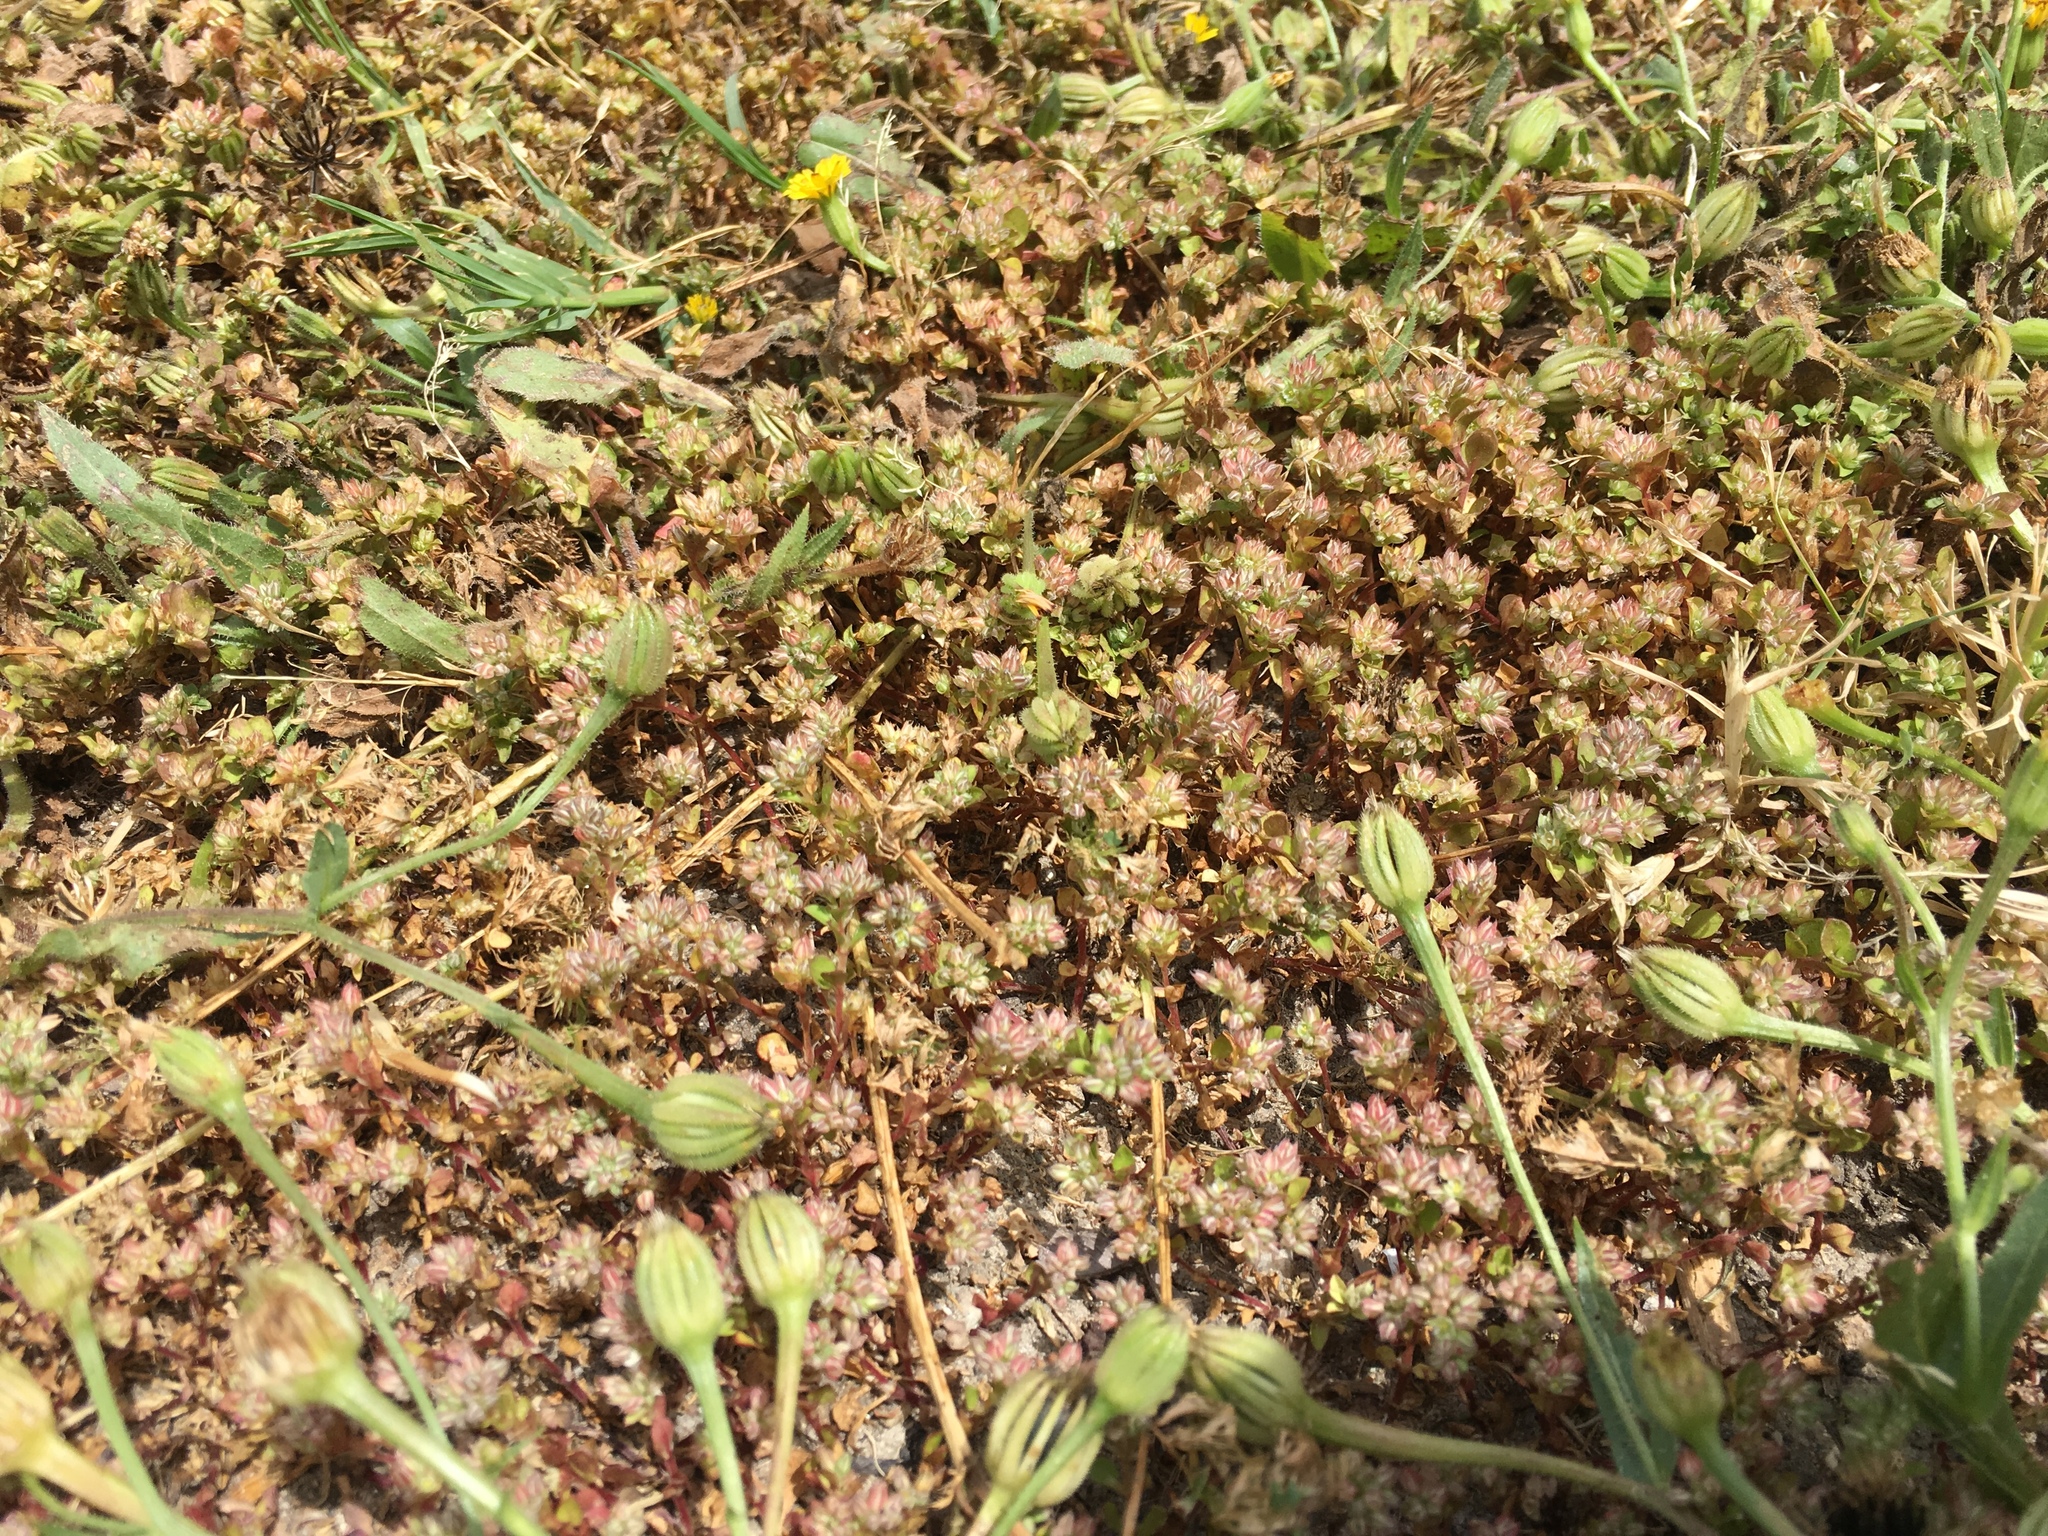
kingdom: Plantae
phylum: Tracheophyta
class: Magnoliopsida
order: Caryophyllales
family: Caryophyllaceae
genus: Polycarpon
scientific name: Polycarpon tetraphyllum
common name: Four-leaved all-seed
